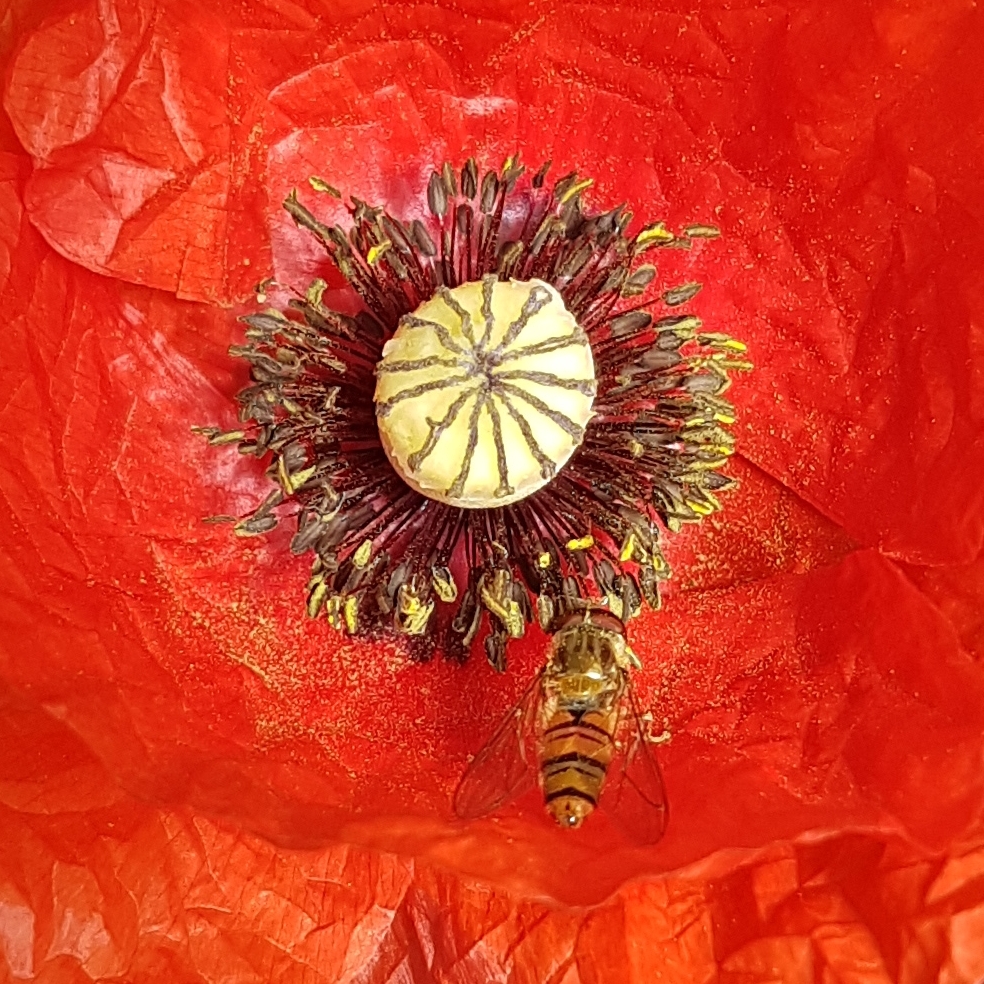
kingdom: Animalia
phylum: Arthropoda
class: Insecta
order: Diptera
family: Syrphidae
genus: Episyrphus
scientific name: Episyrphus balteatus
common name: Marmalade hoverfly
